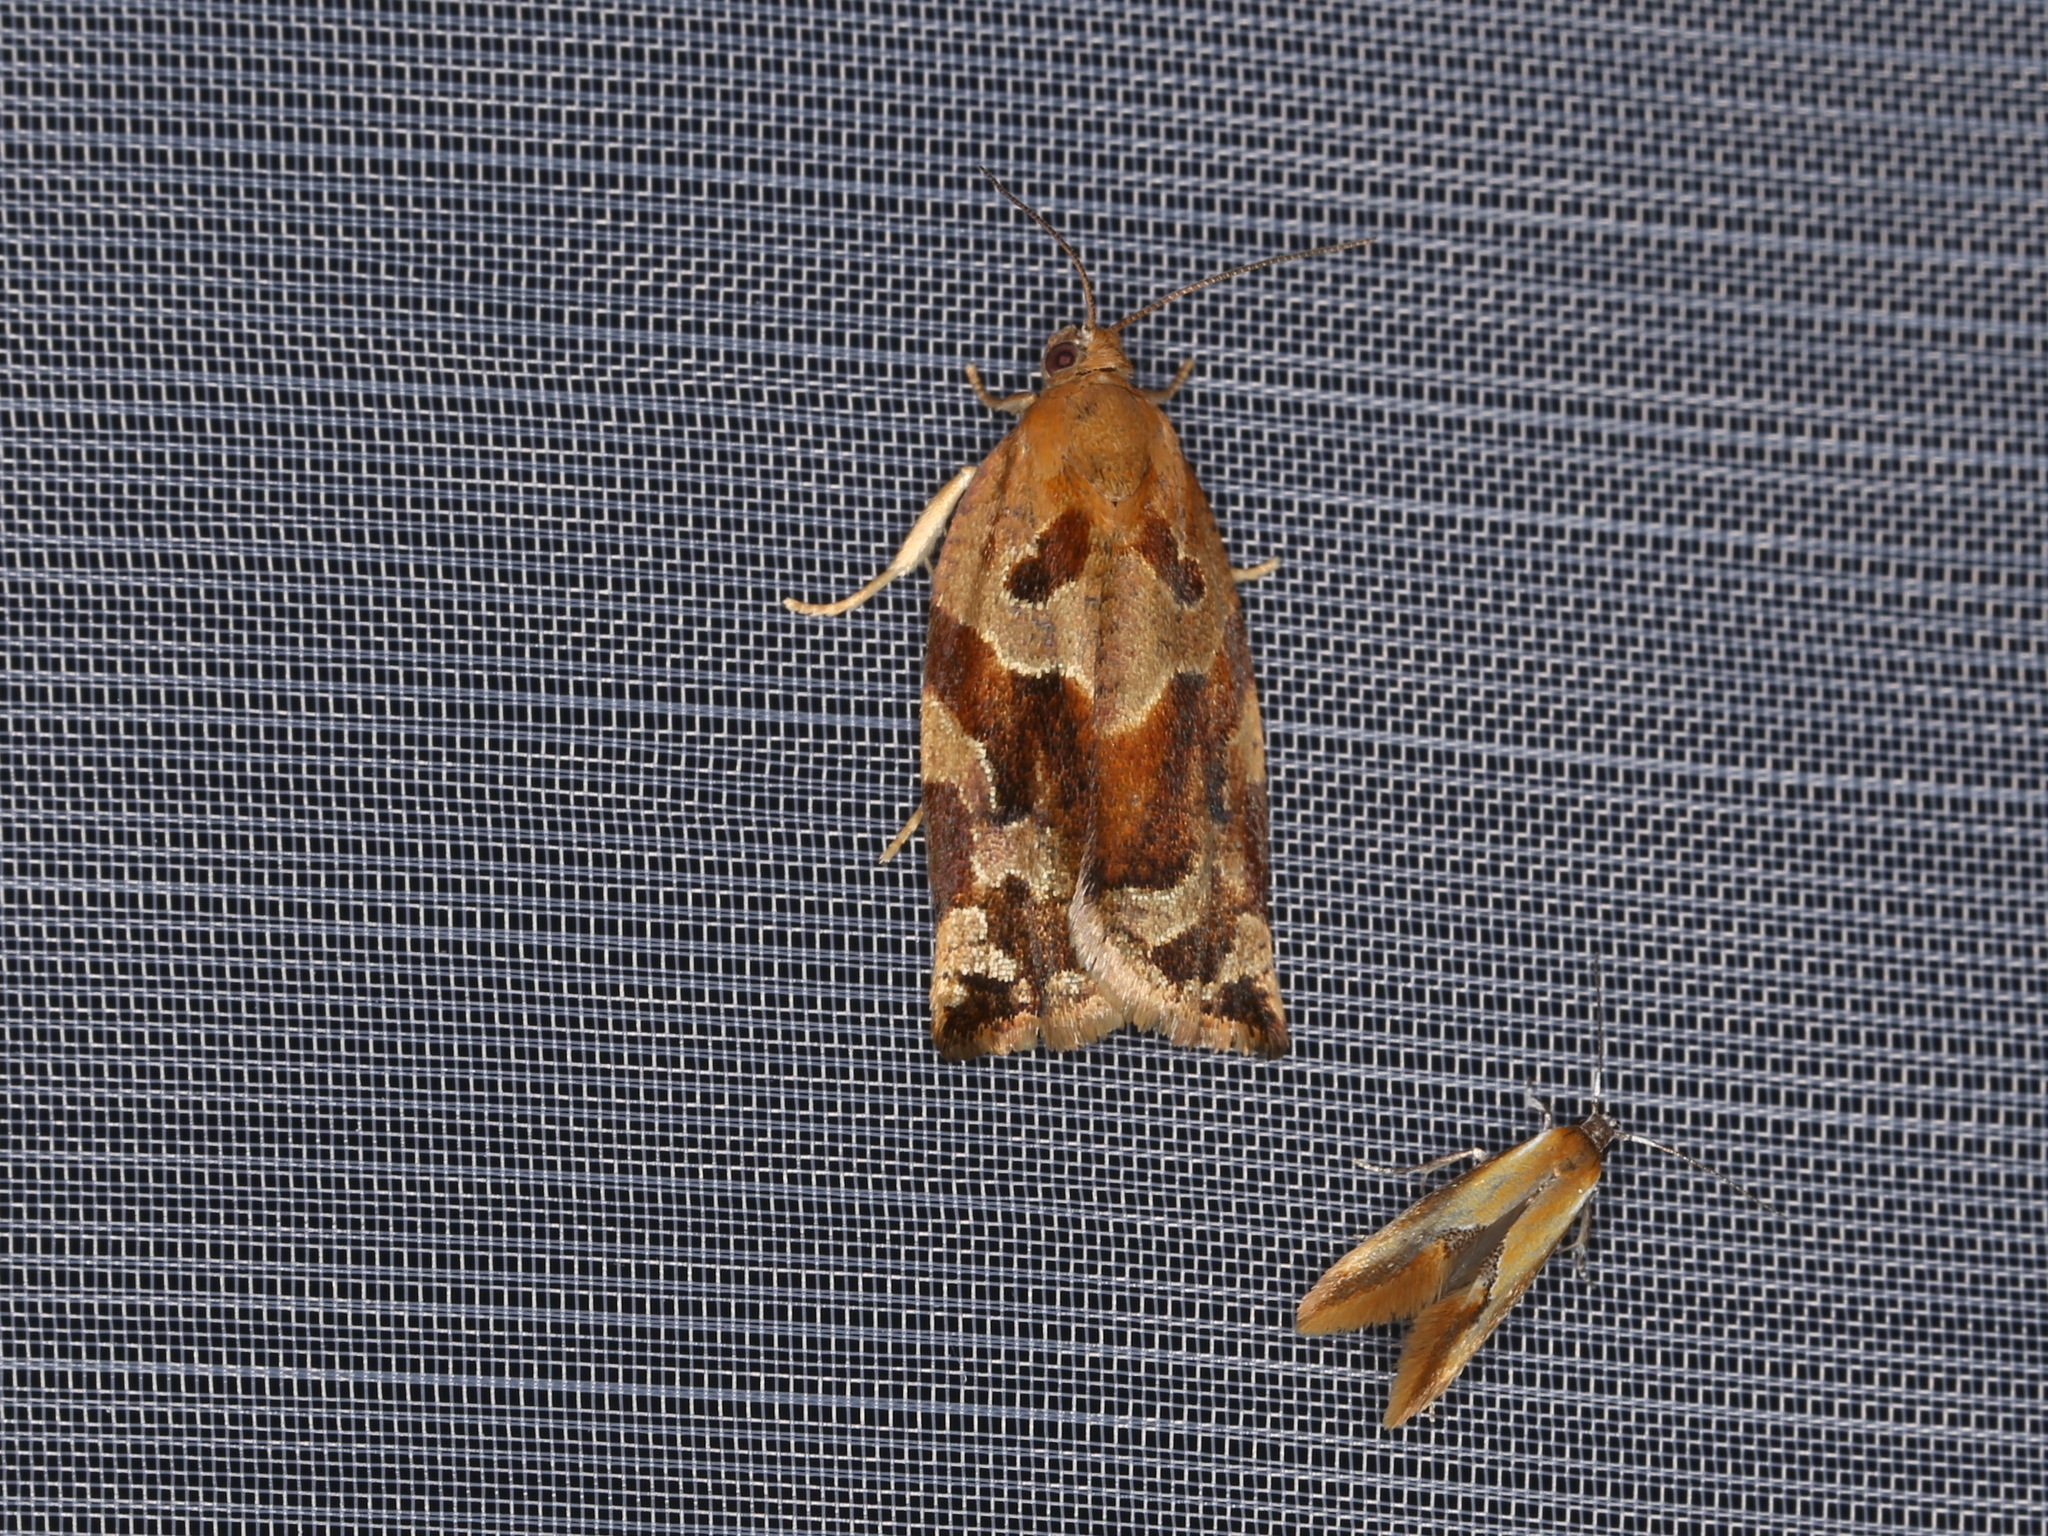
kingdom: Animalia
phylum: Arthropoda
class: Insecta
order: Lepidoptera
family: Tortricidae
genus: Archips
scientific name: Archips xylosteana
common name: Variegated golden tortrix
